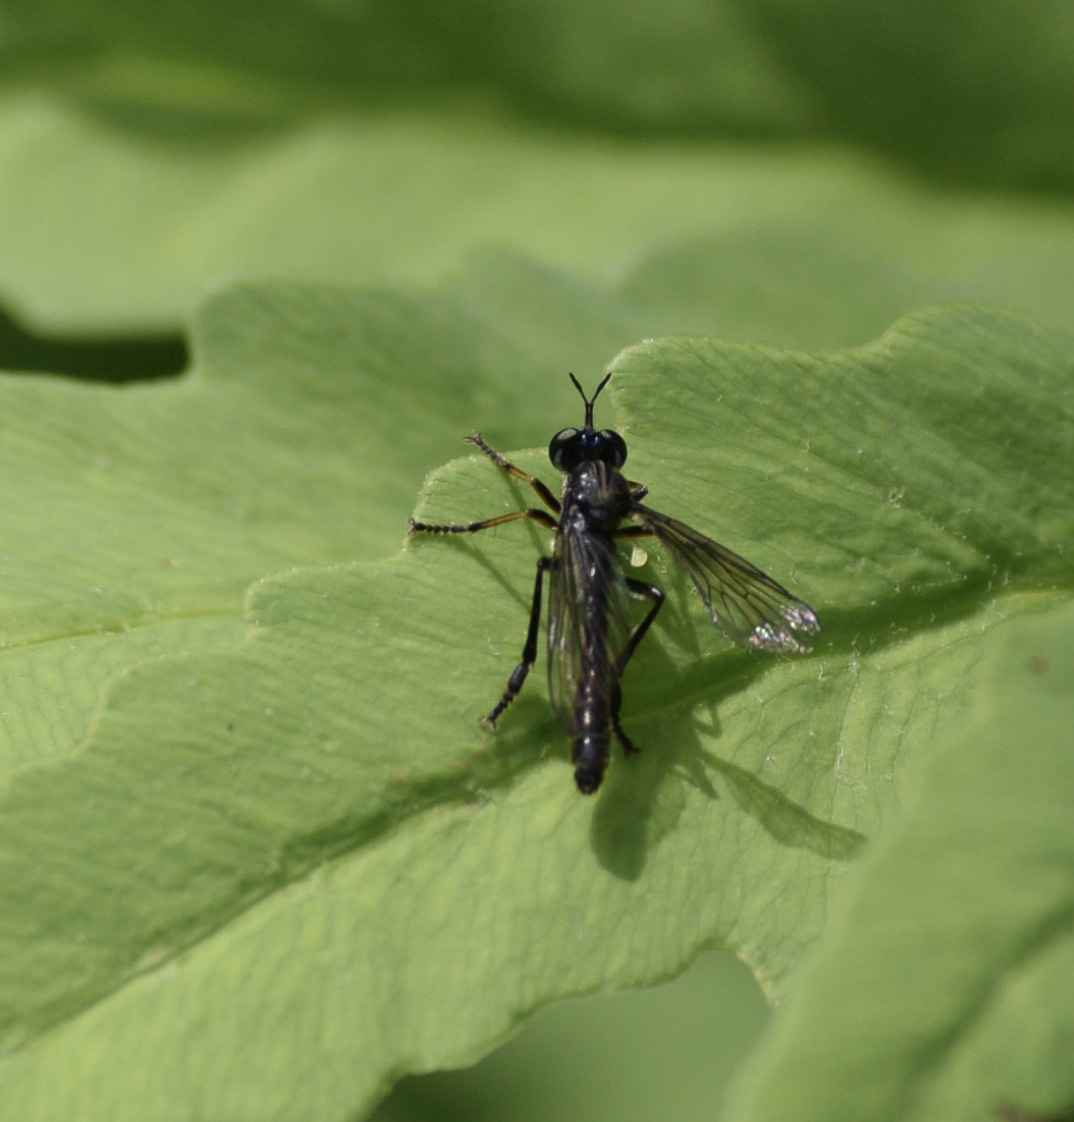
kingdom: Animalia
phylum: Arthropoda
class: Insecta
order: Diptera
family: Asilidae
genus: Dioctria
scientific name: Dioctria hyalipennis
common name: Stripe-legged robberfly
